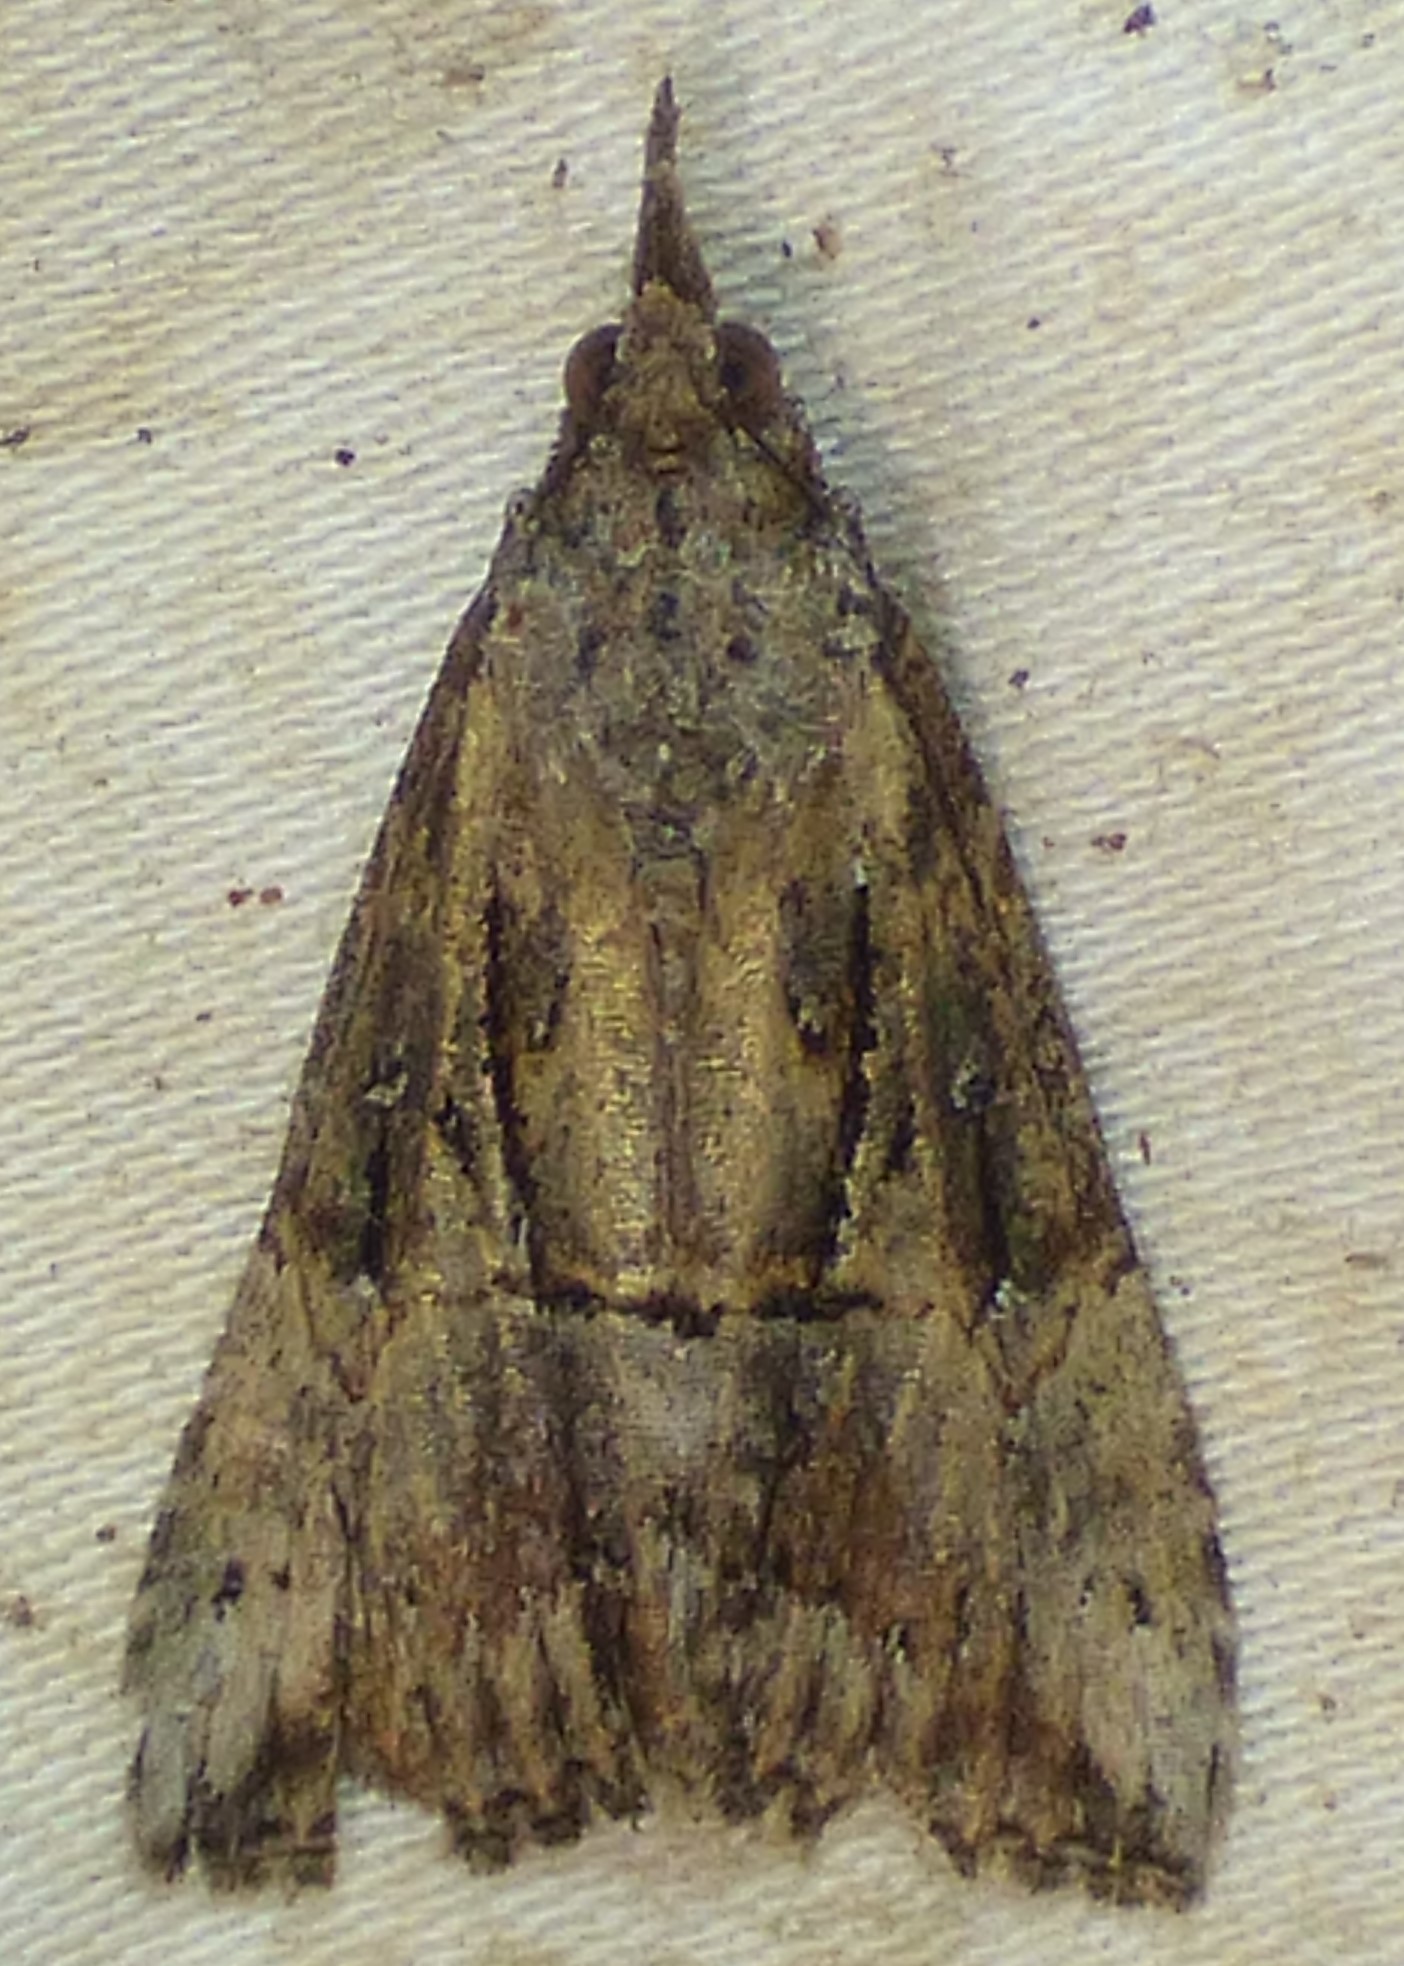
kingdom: Animalia
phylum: Arthropoda
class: Insecta
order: Lepidoptera
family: Erebidae
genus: Hypena
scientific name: Hypena scabra
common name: Green cloverworm
